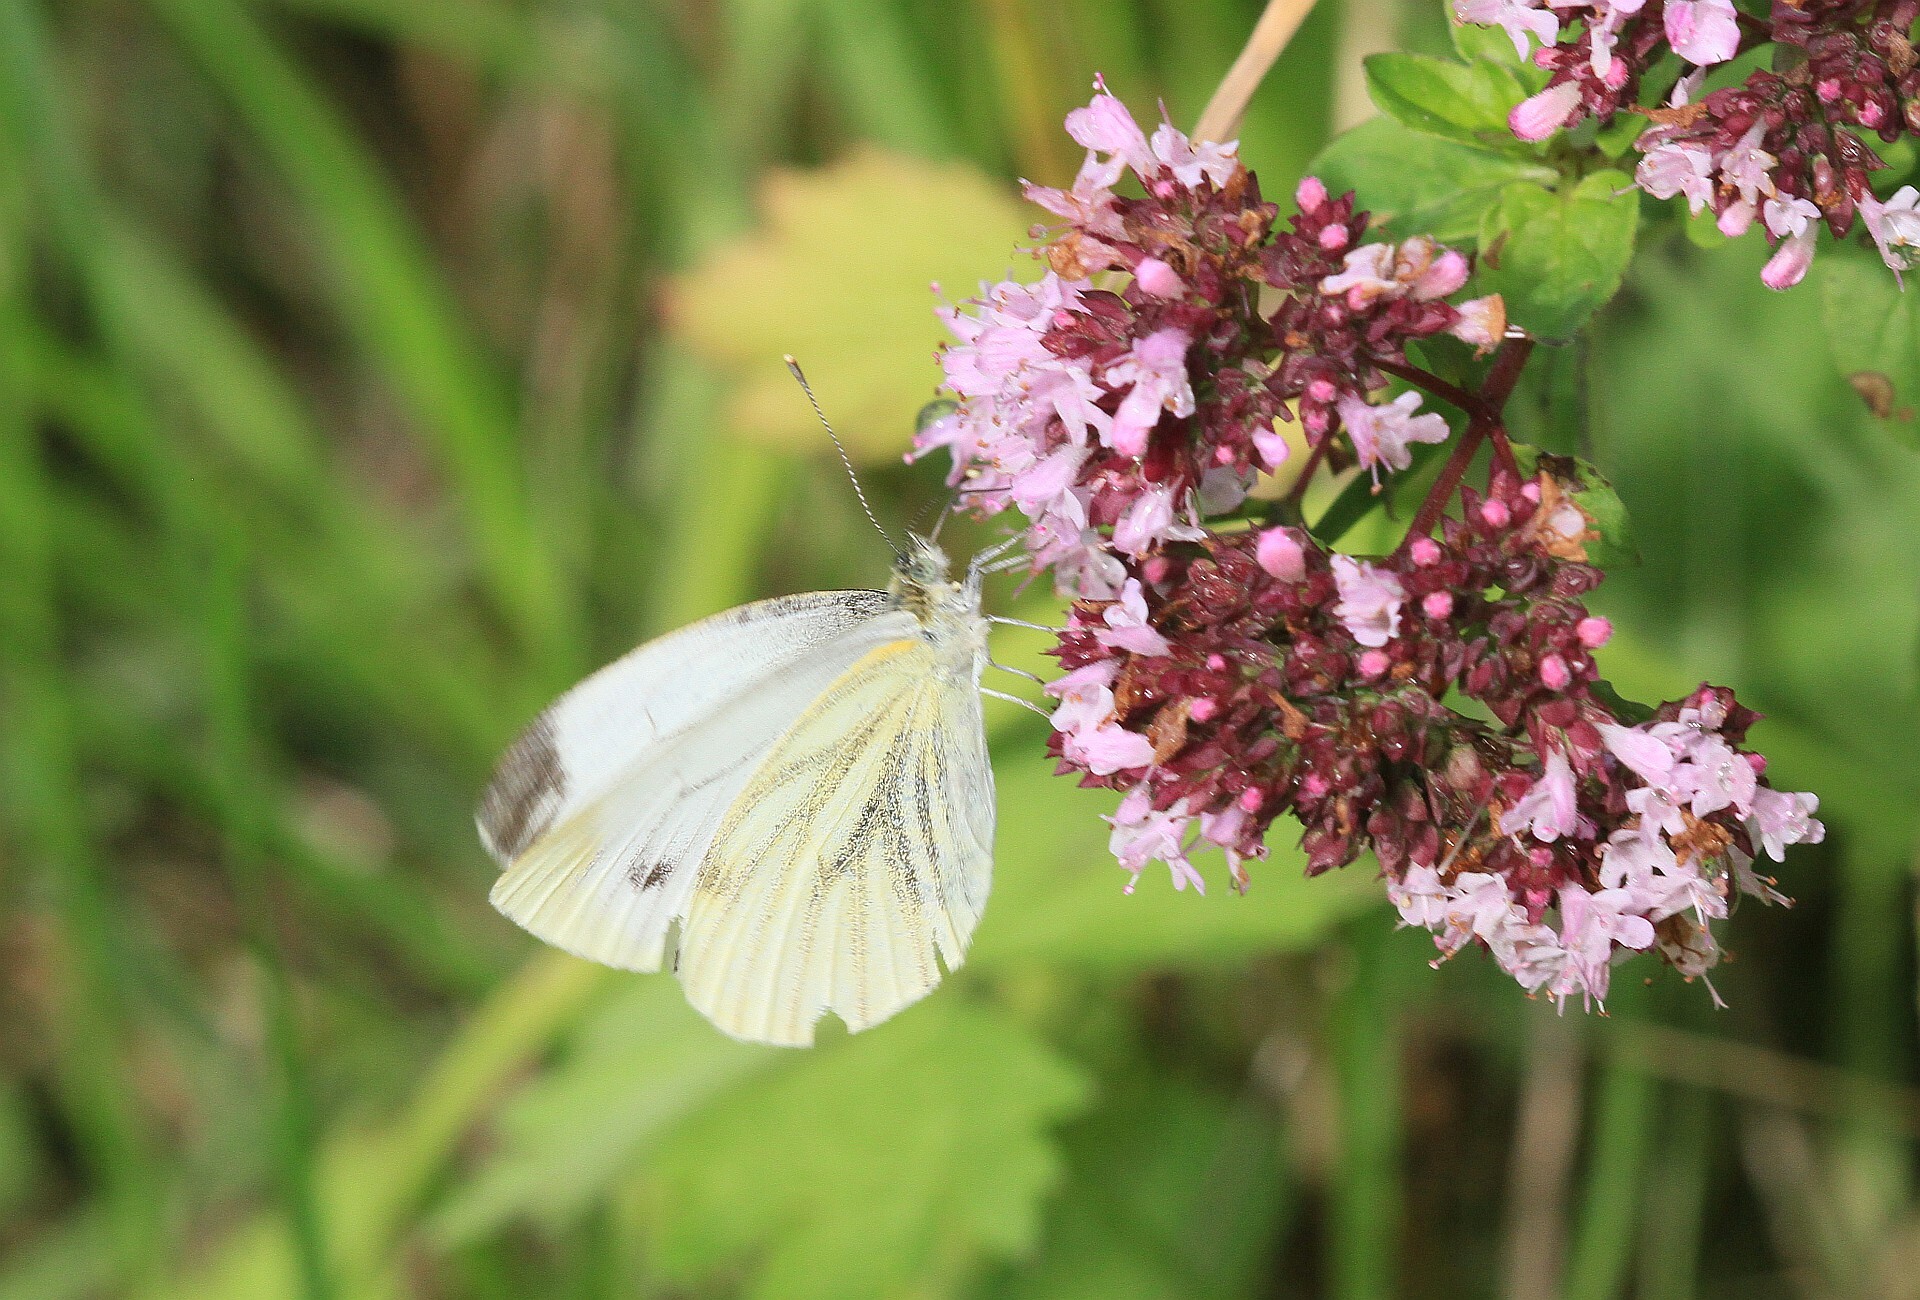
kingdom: Animalia
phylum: Arthropoda
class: Insecta
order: Lepidoptera
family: Pieridae
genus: Pieris
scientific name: Pieris napi
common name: Green-veined white
